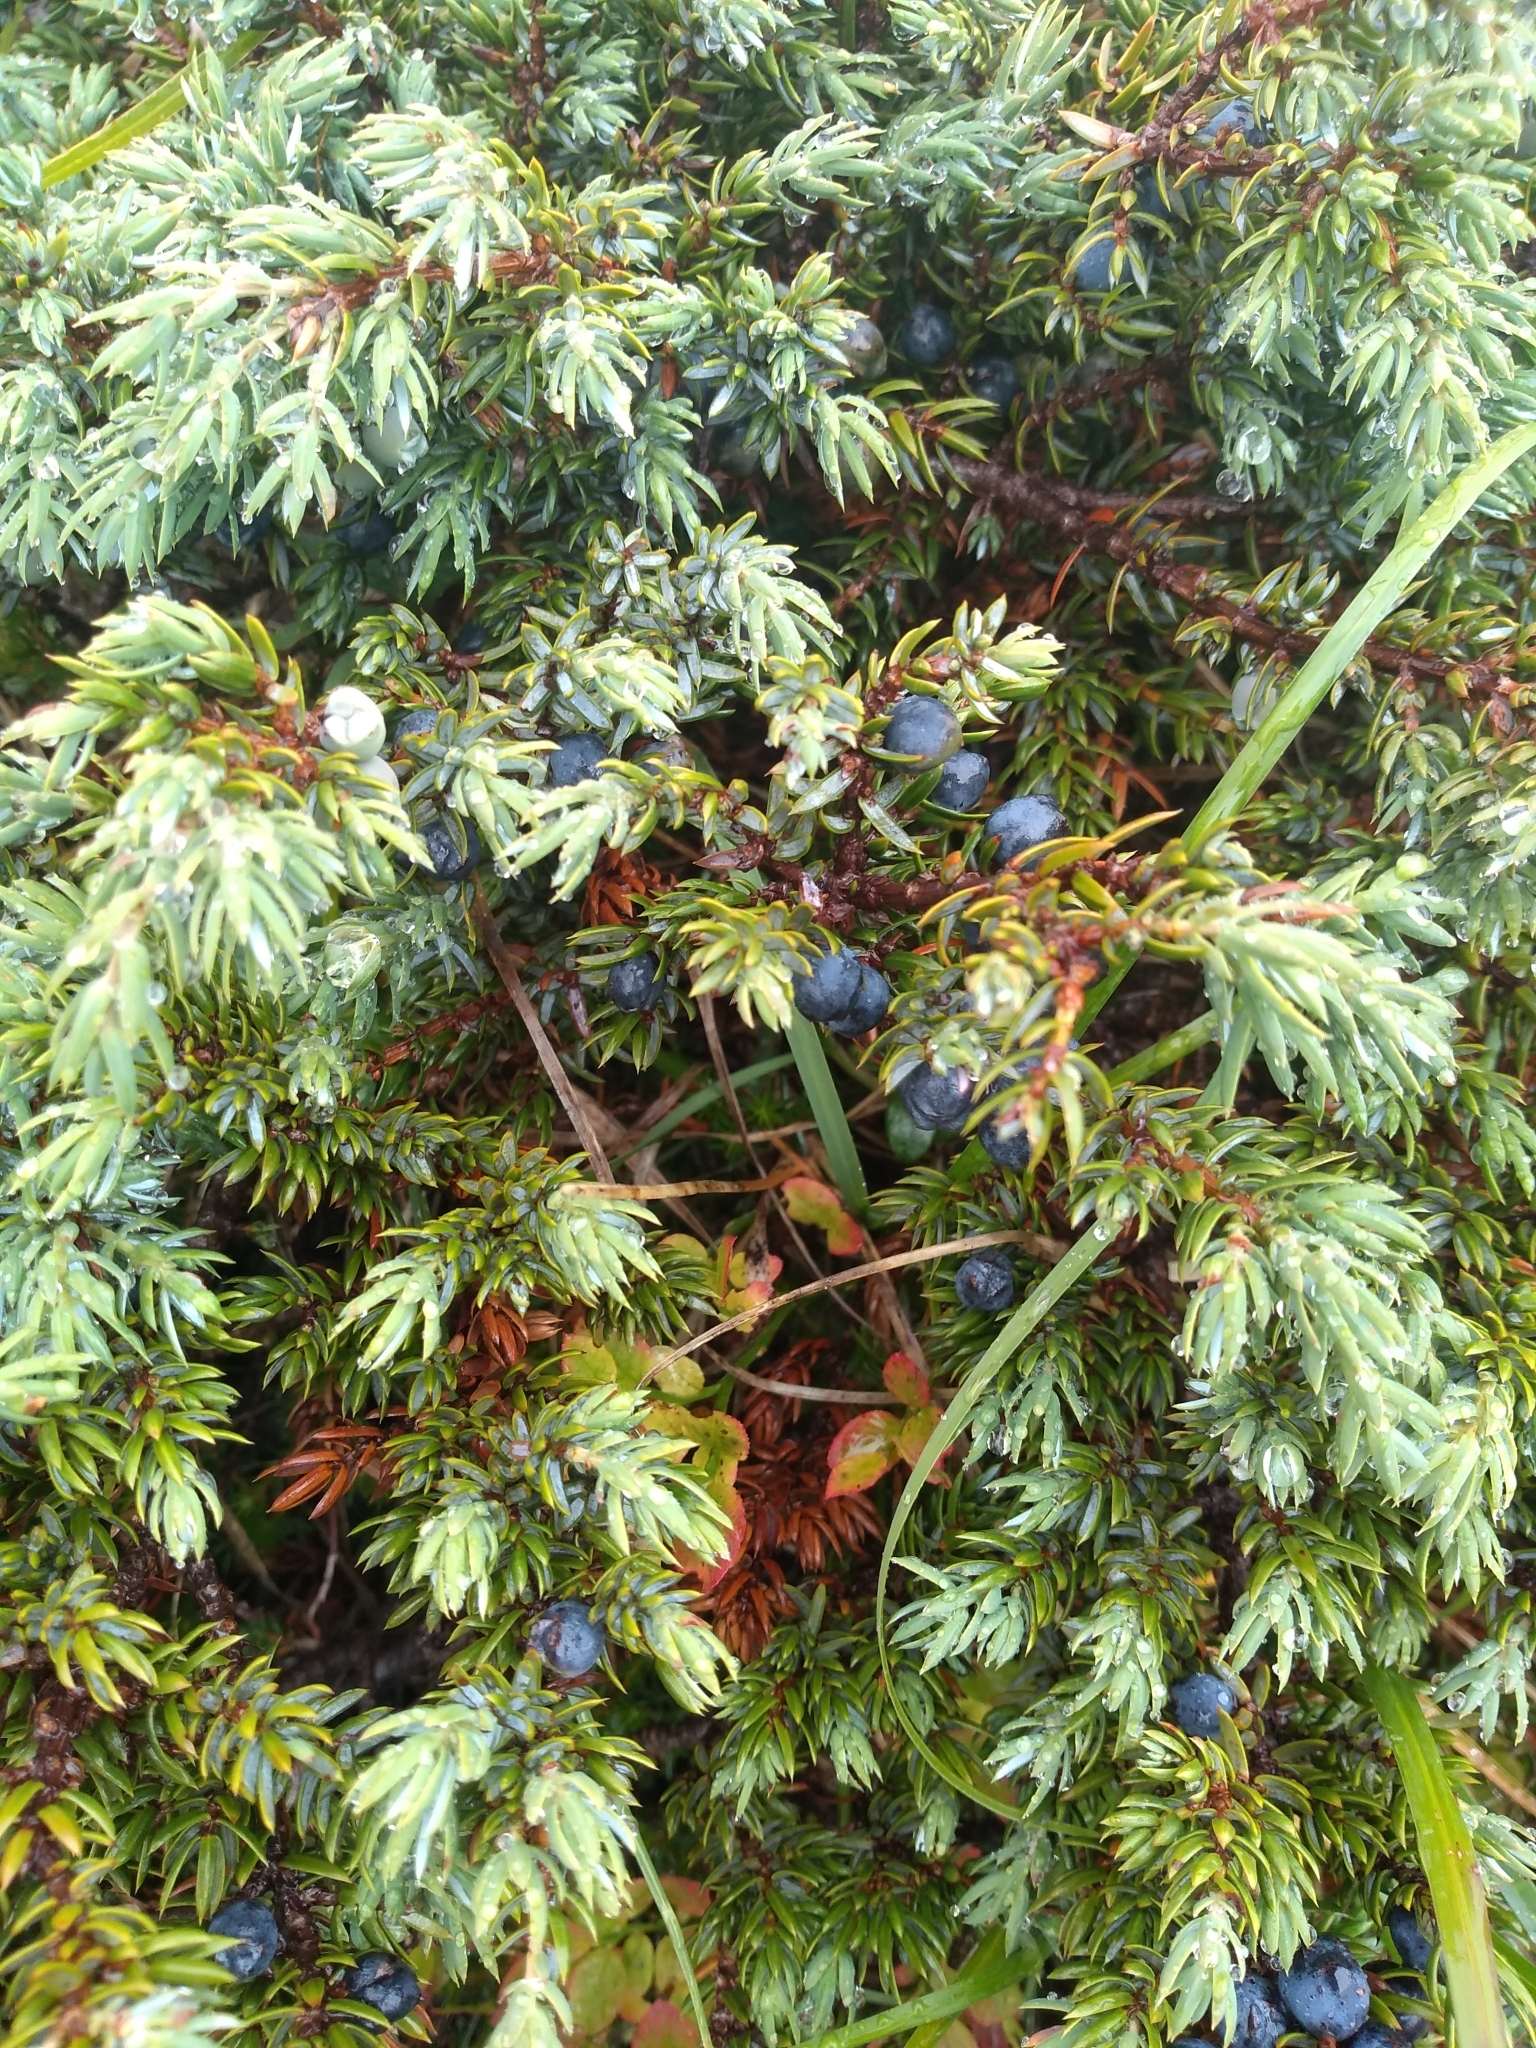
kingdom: Plantae
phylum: Tracheophyta
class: Pinopsida
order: Pinales
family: Cupressaceae
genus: Juniperus
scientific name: Juniperus communis
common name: Common juniper
